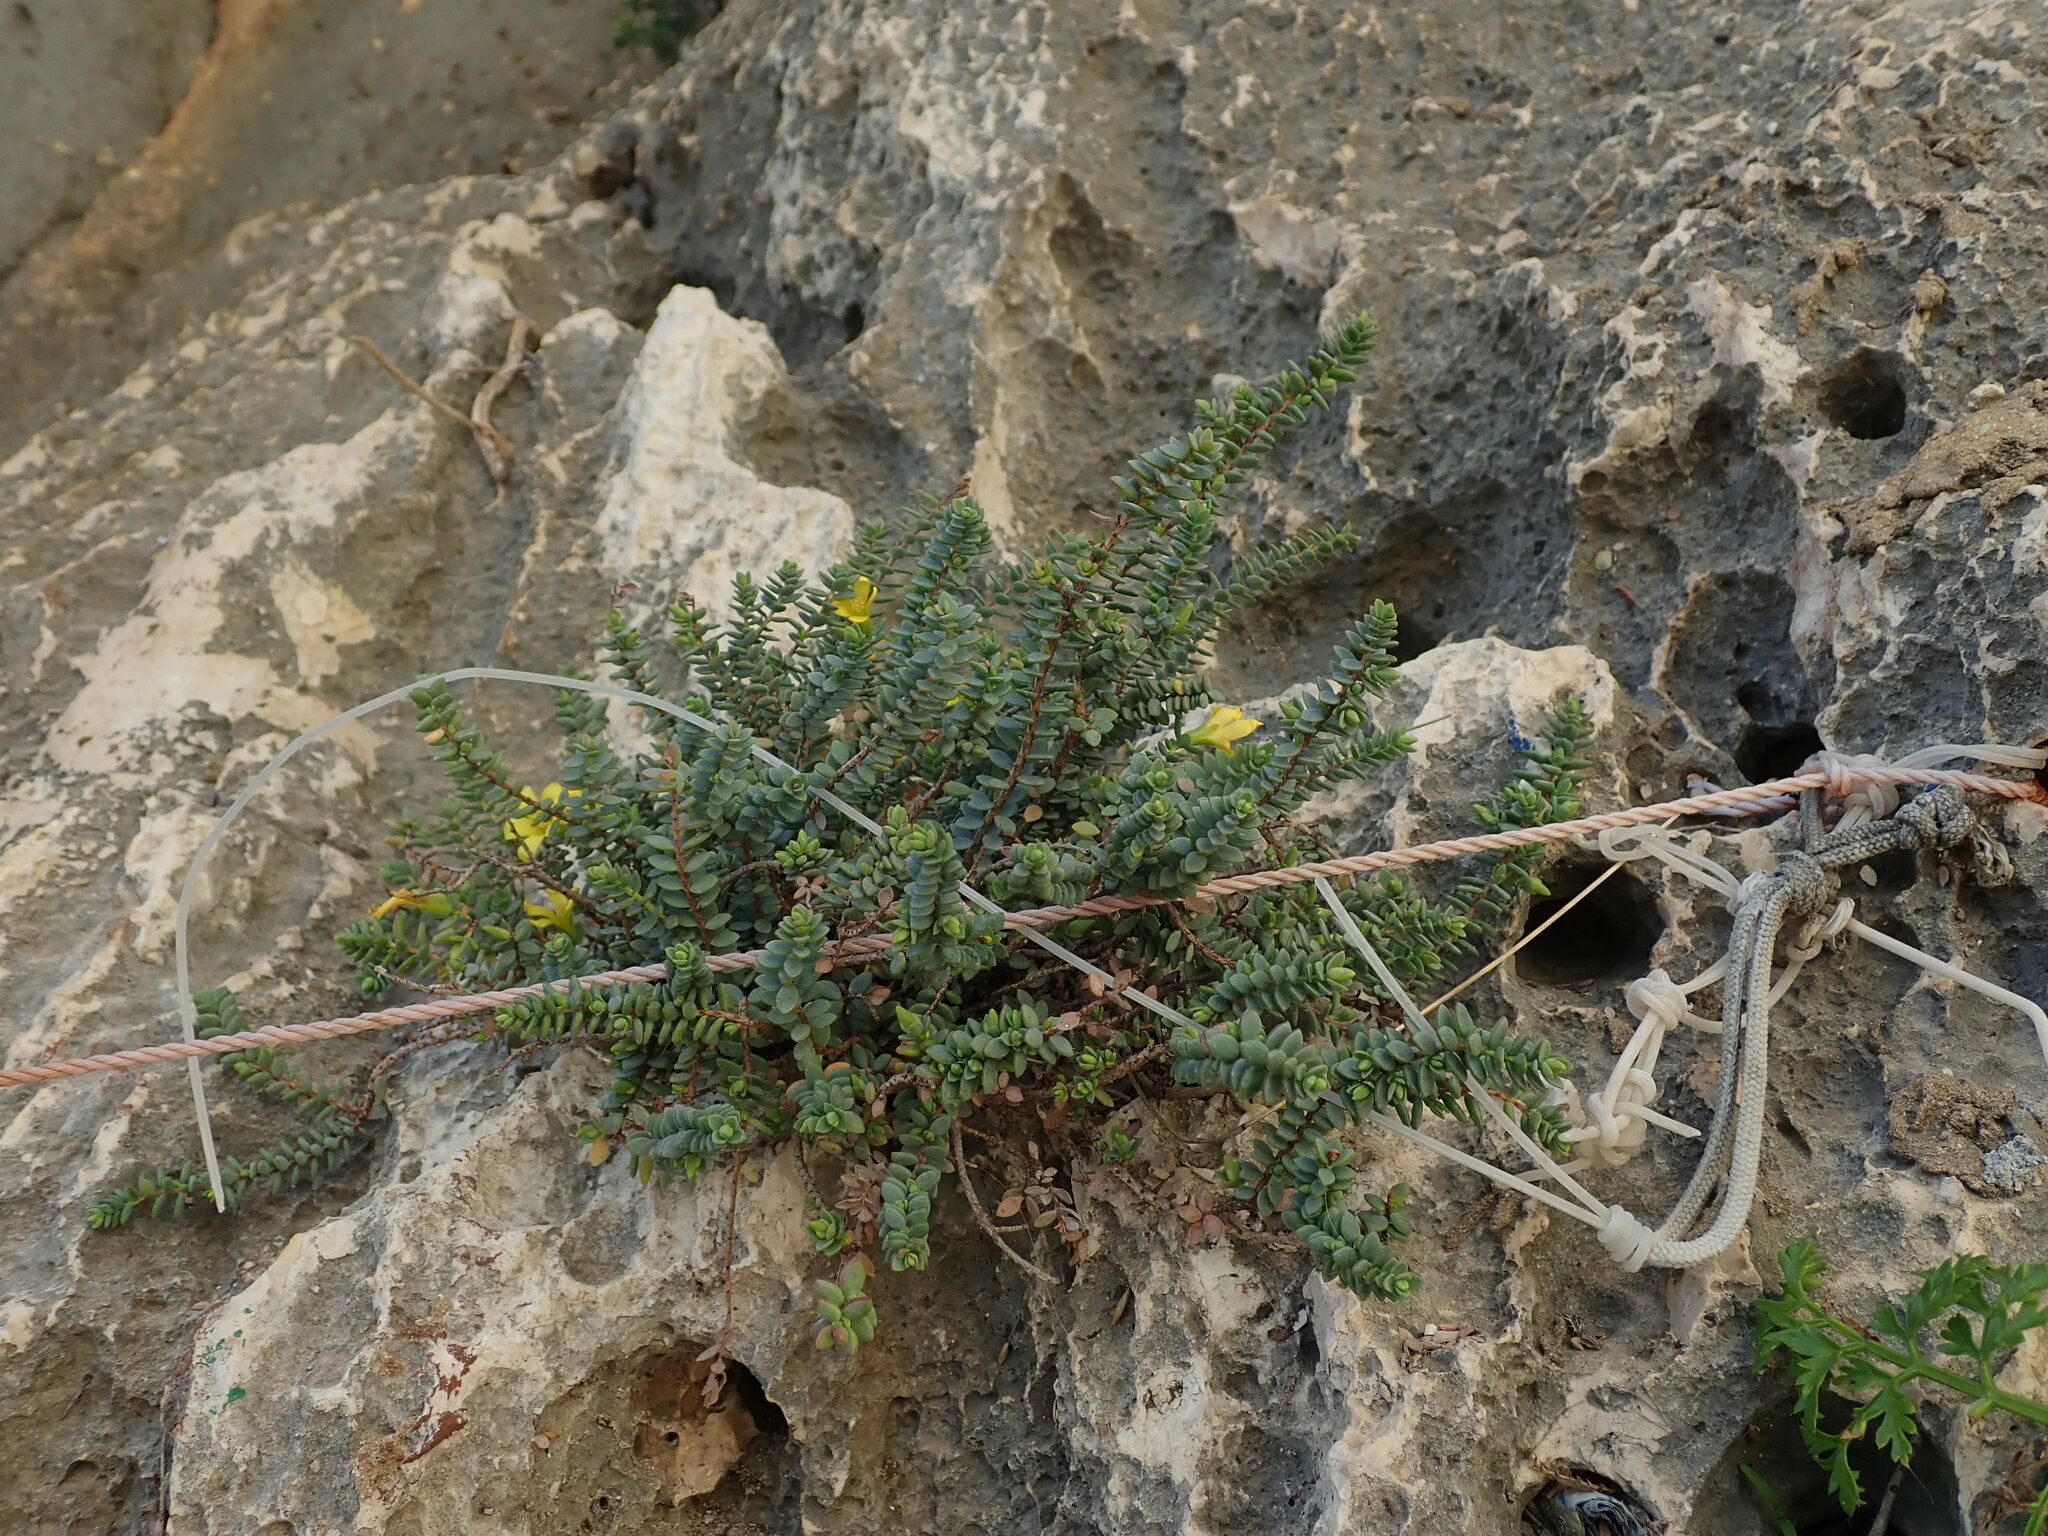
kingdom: Plantae
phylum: Tracheophyta
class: Magnoliopsida
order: Malpighiales
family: Hypericaceae
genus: Hypericum
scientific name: Hypericum aegypticum
